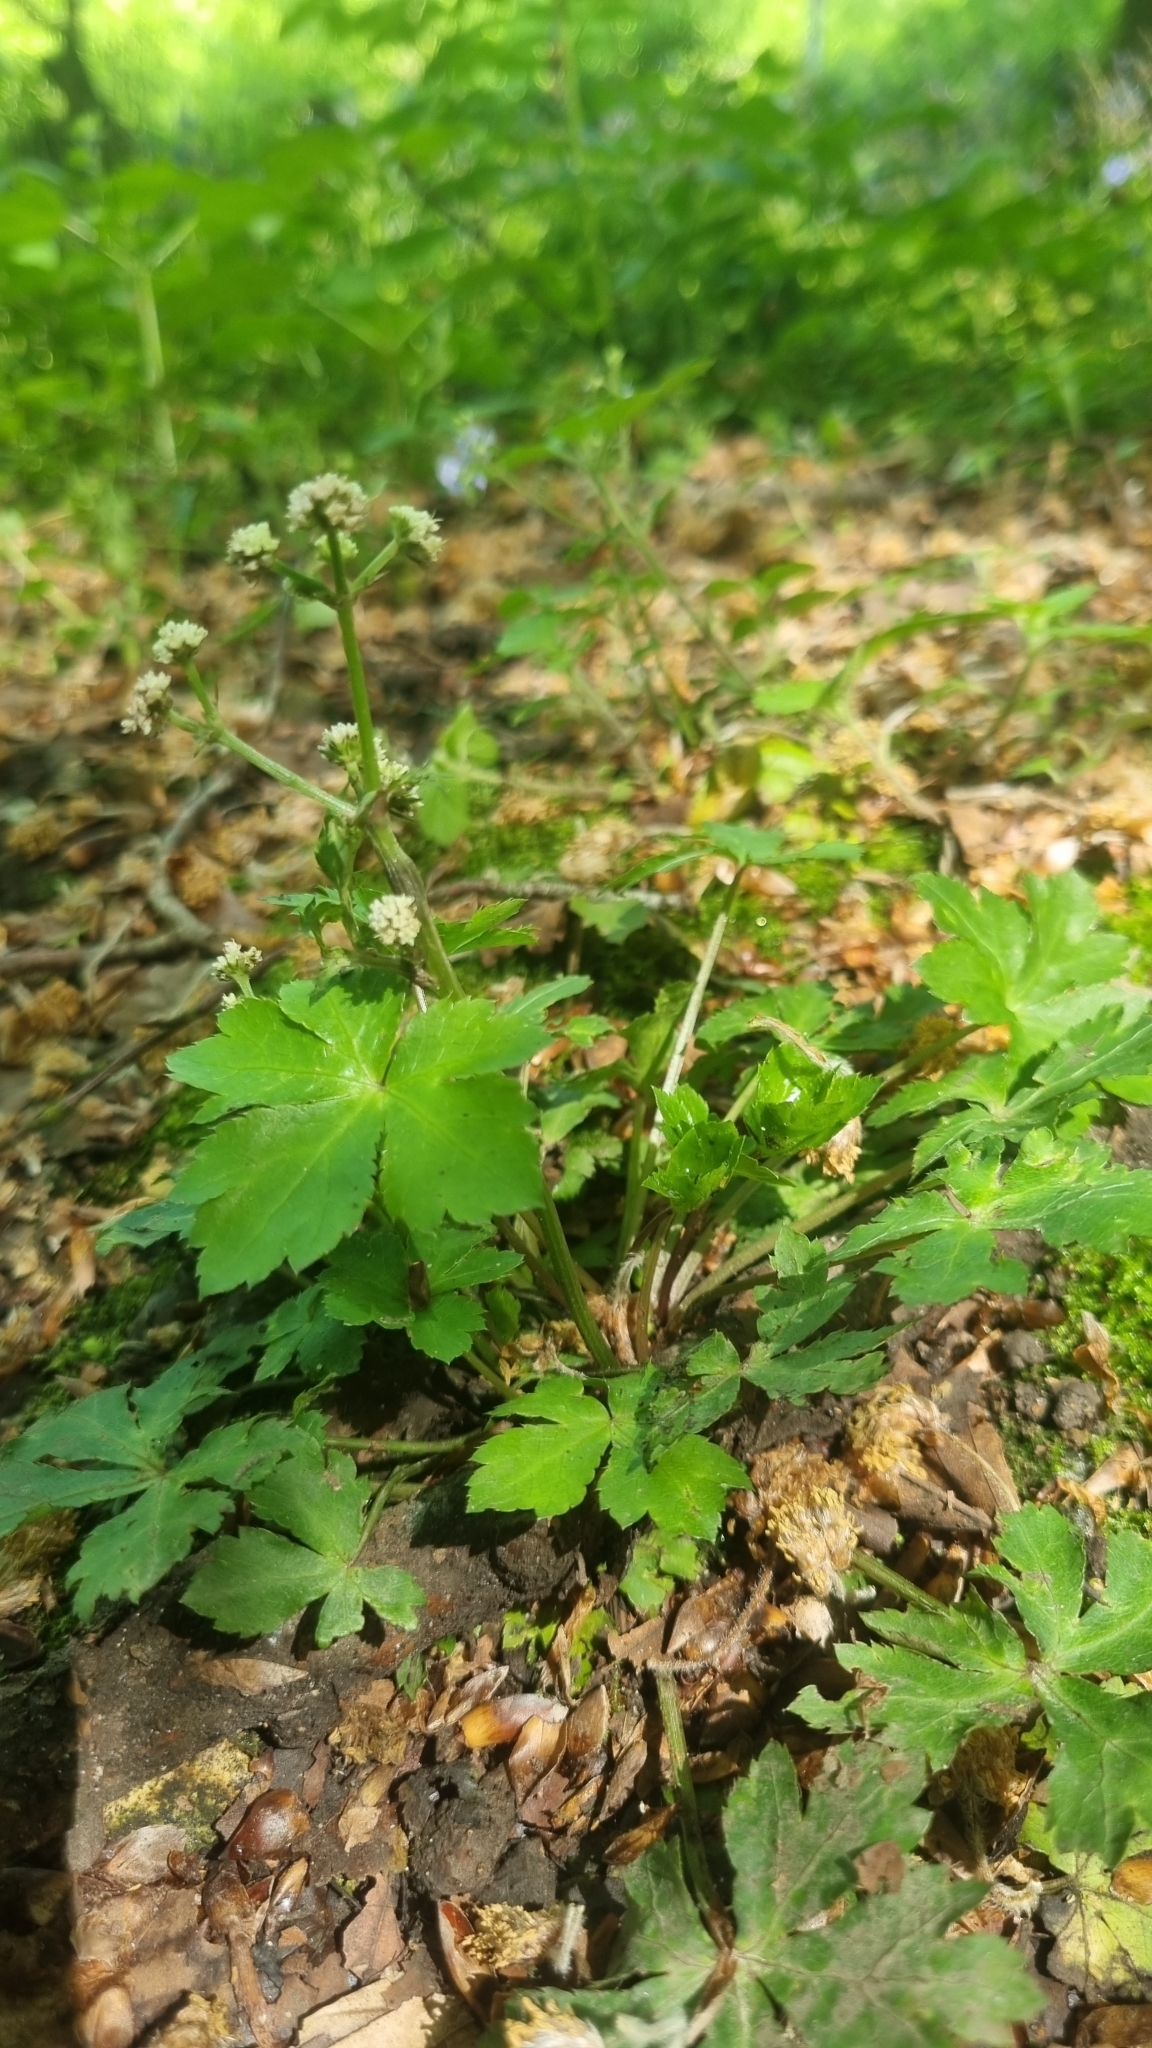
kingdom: Plantae
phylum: Tracheophyta
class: Magnoliopsida
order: Apiales
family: Apiaceae
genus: Sanicula
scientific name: Sanicula europaea
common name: Sanicle
